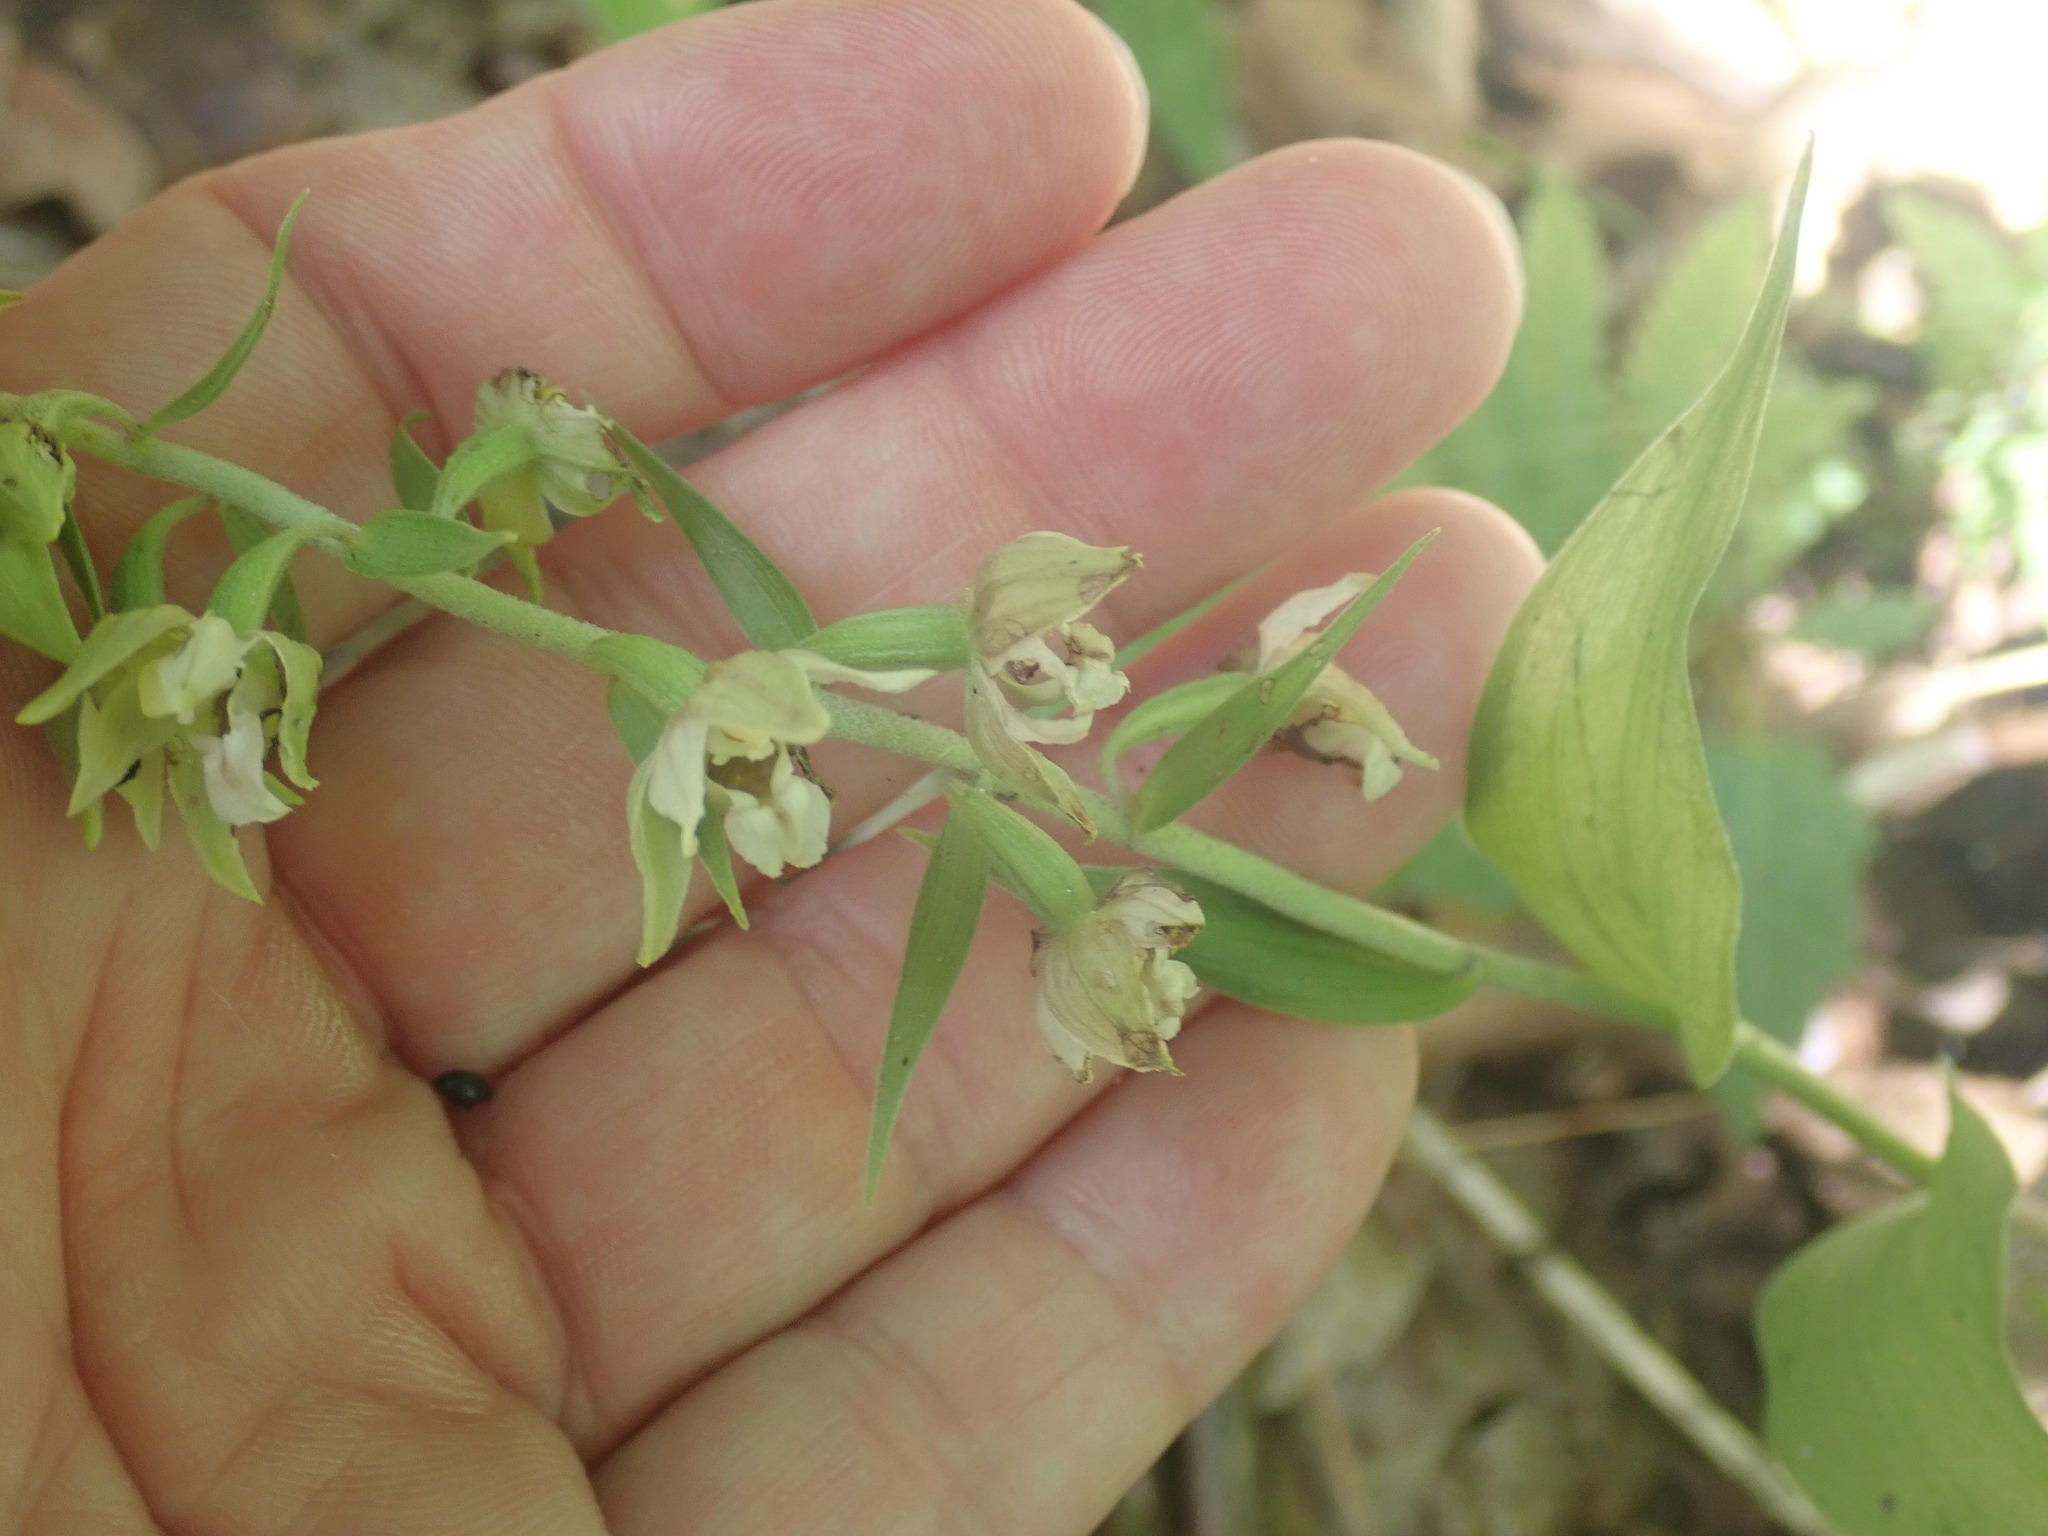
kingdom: Plantae
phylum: Tracheophyta
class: Liliopsida
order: Asparagales
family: Orchidaceae
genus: Epipactis
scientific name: Epipactis helleborine
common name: Broad-leaved helleborine
